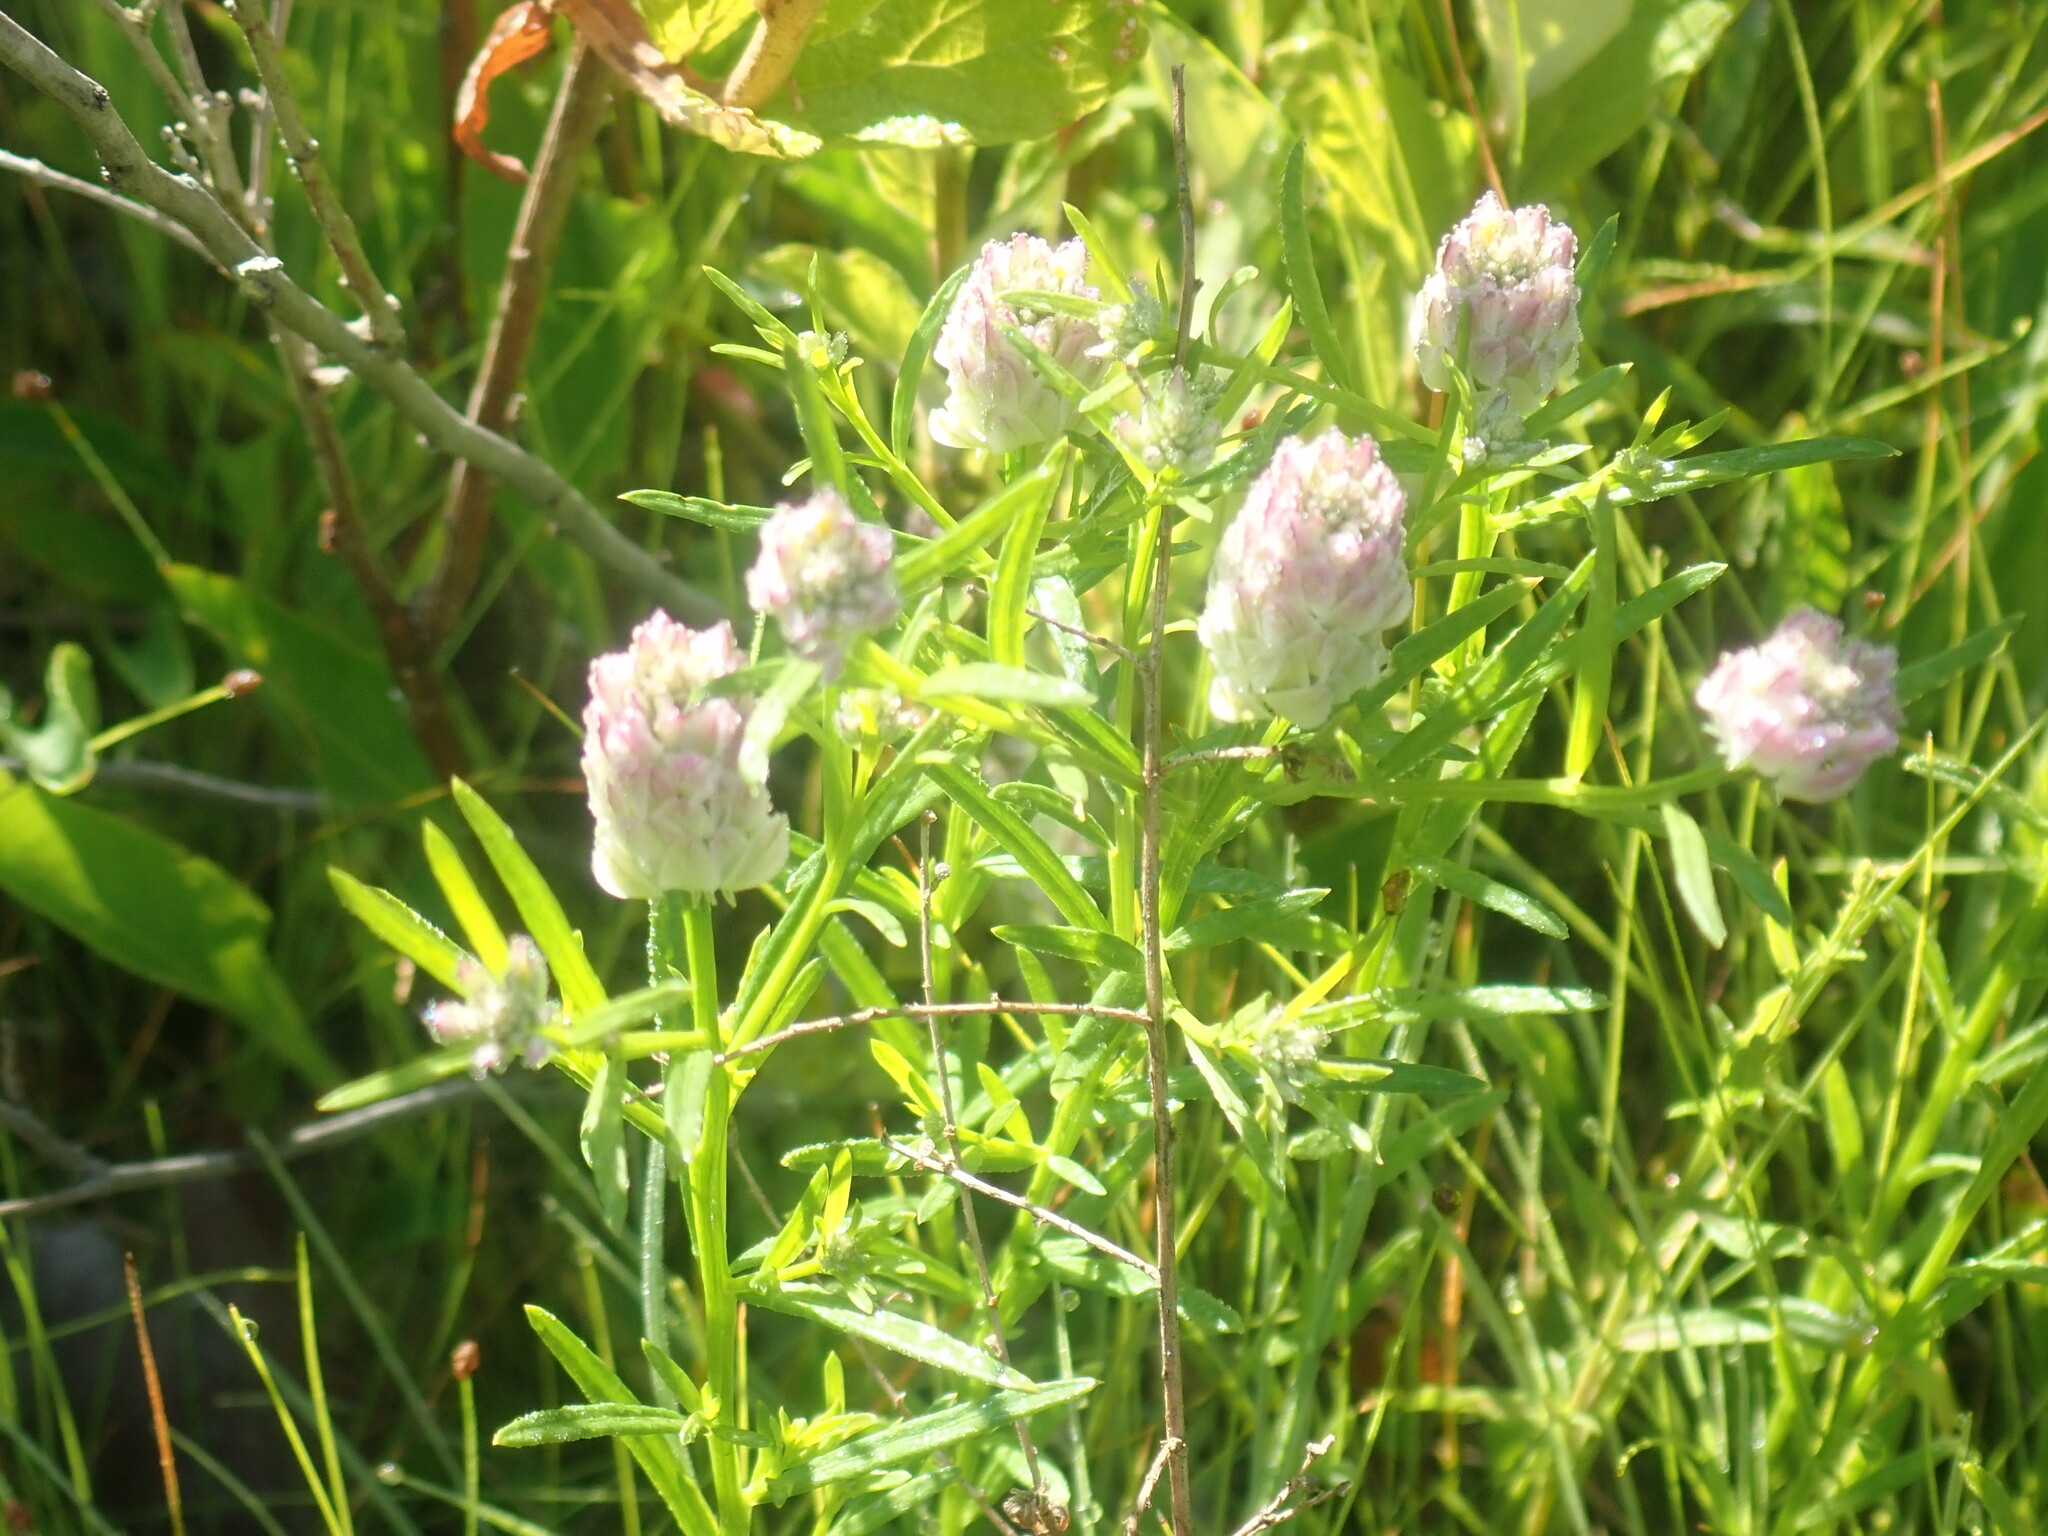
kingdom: Plantae
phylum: Tracheophyta
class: Magnoliopsida
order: Fabales
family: Polygalaceae
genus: Polygala
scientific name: Polygala sanguinea
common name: Blood milkwort
